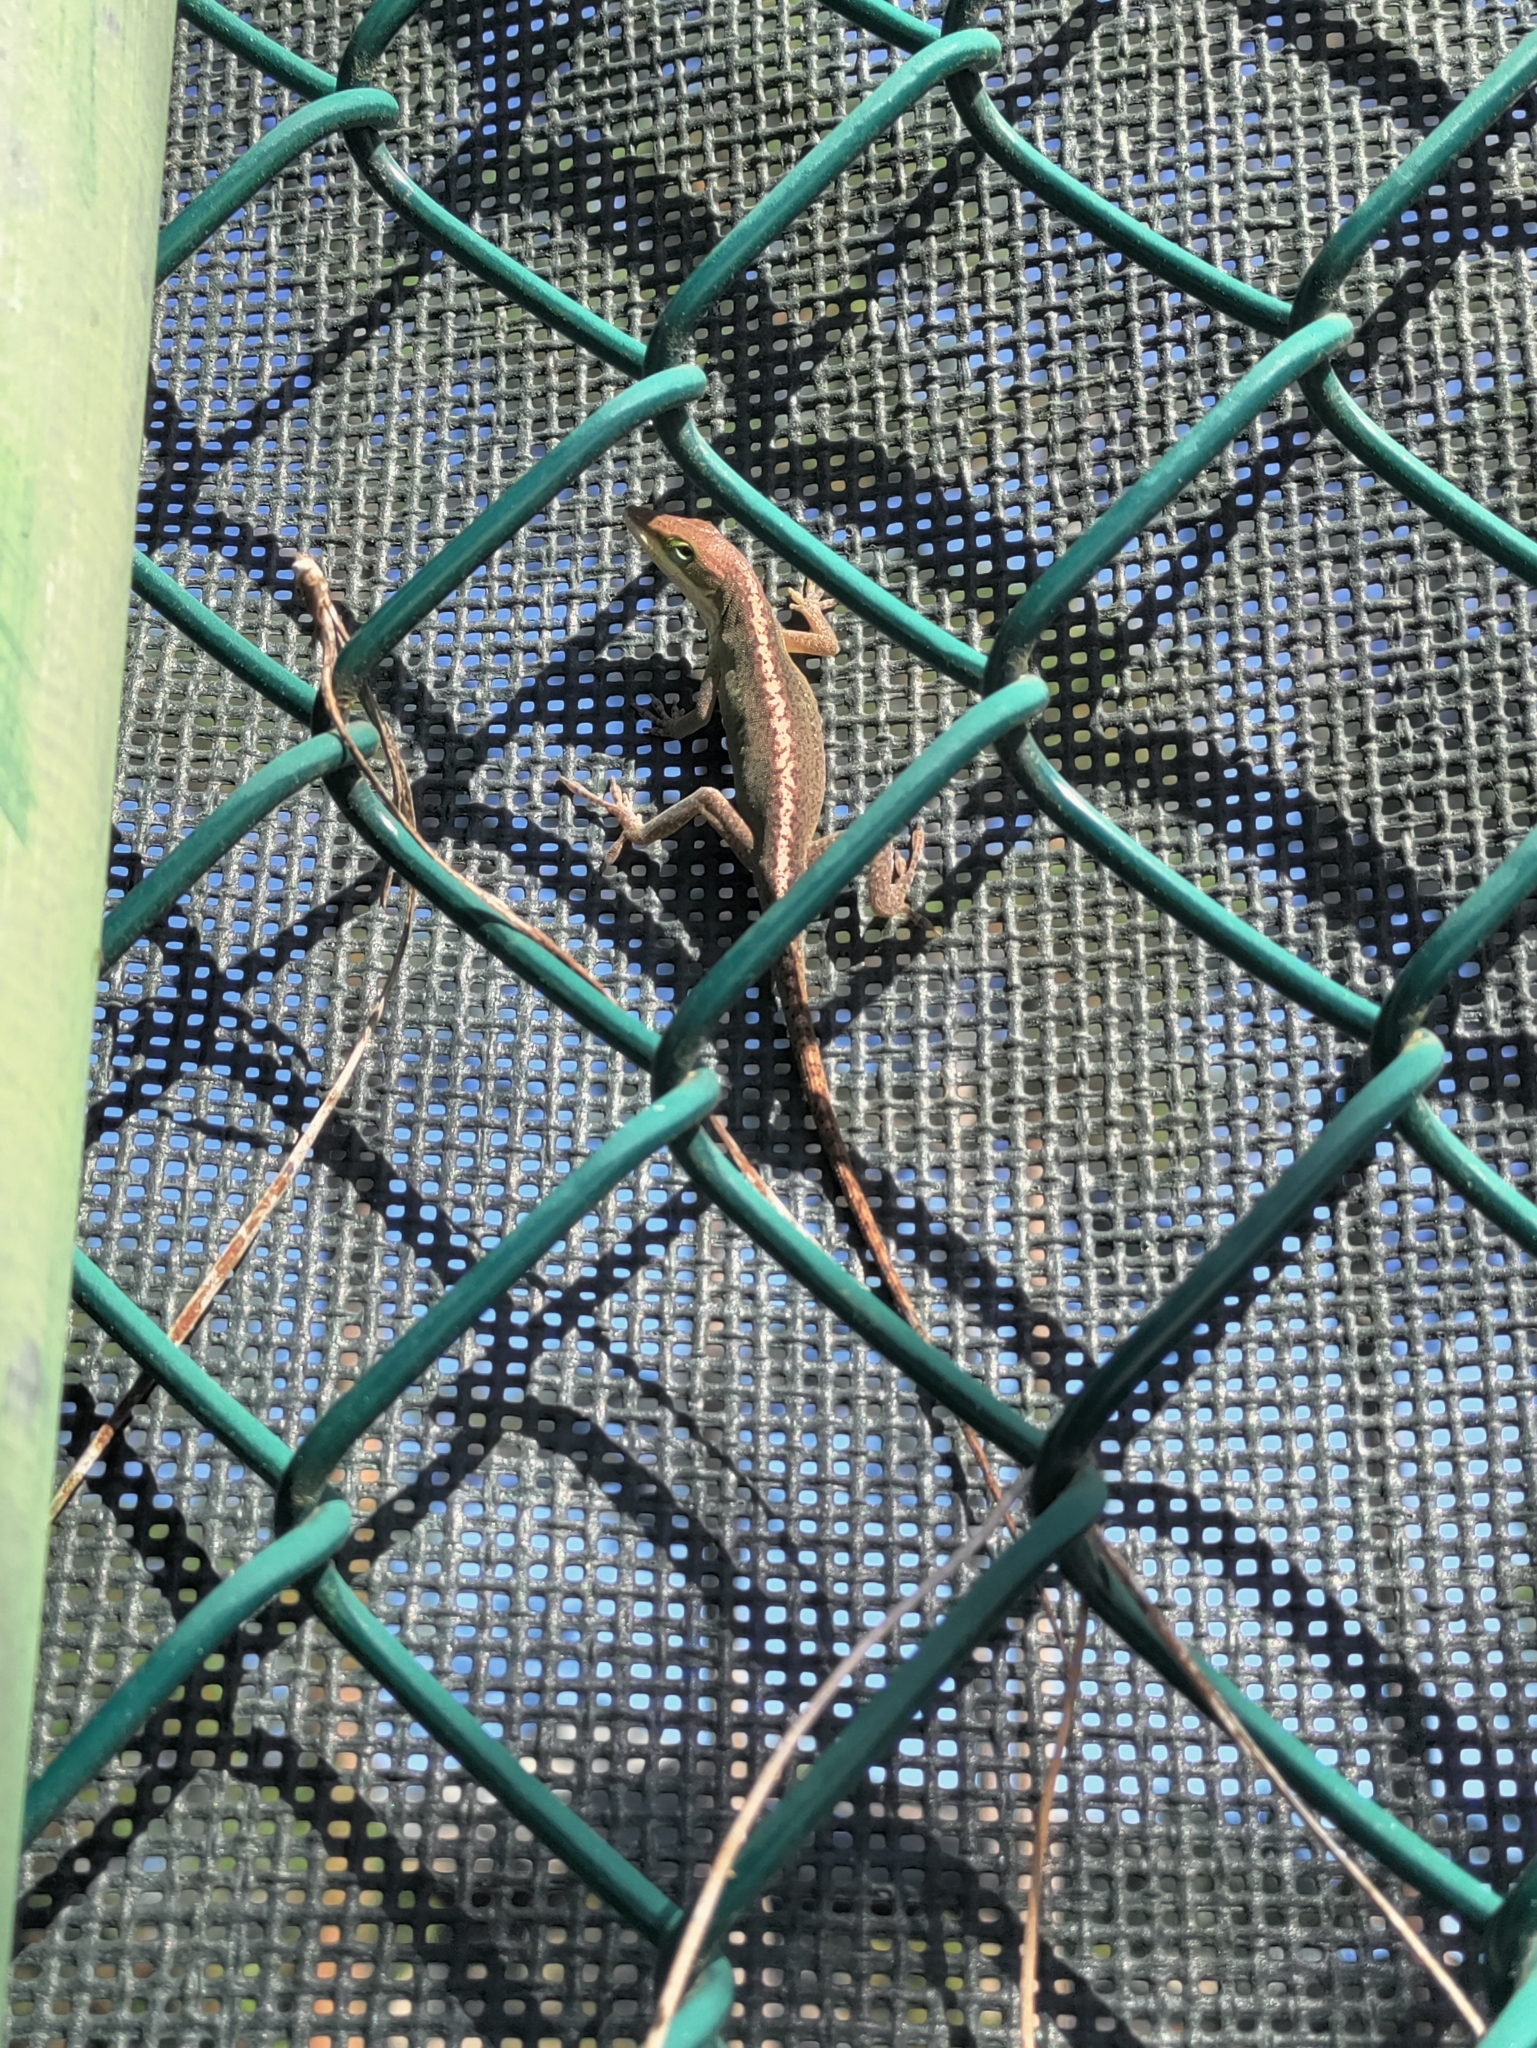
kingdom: Animalia
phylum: Chordata
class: Squamata
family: Dactyloidae
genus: Anolis
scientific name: Anolis carolinensis
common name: Green anole
